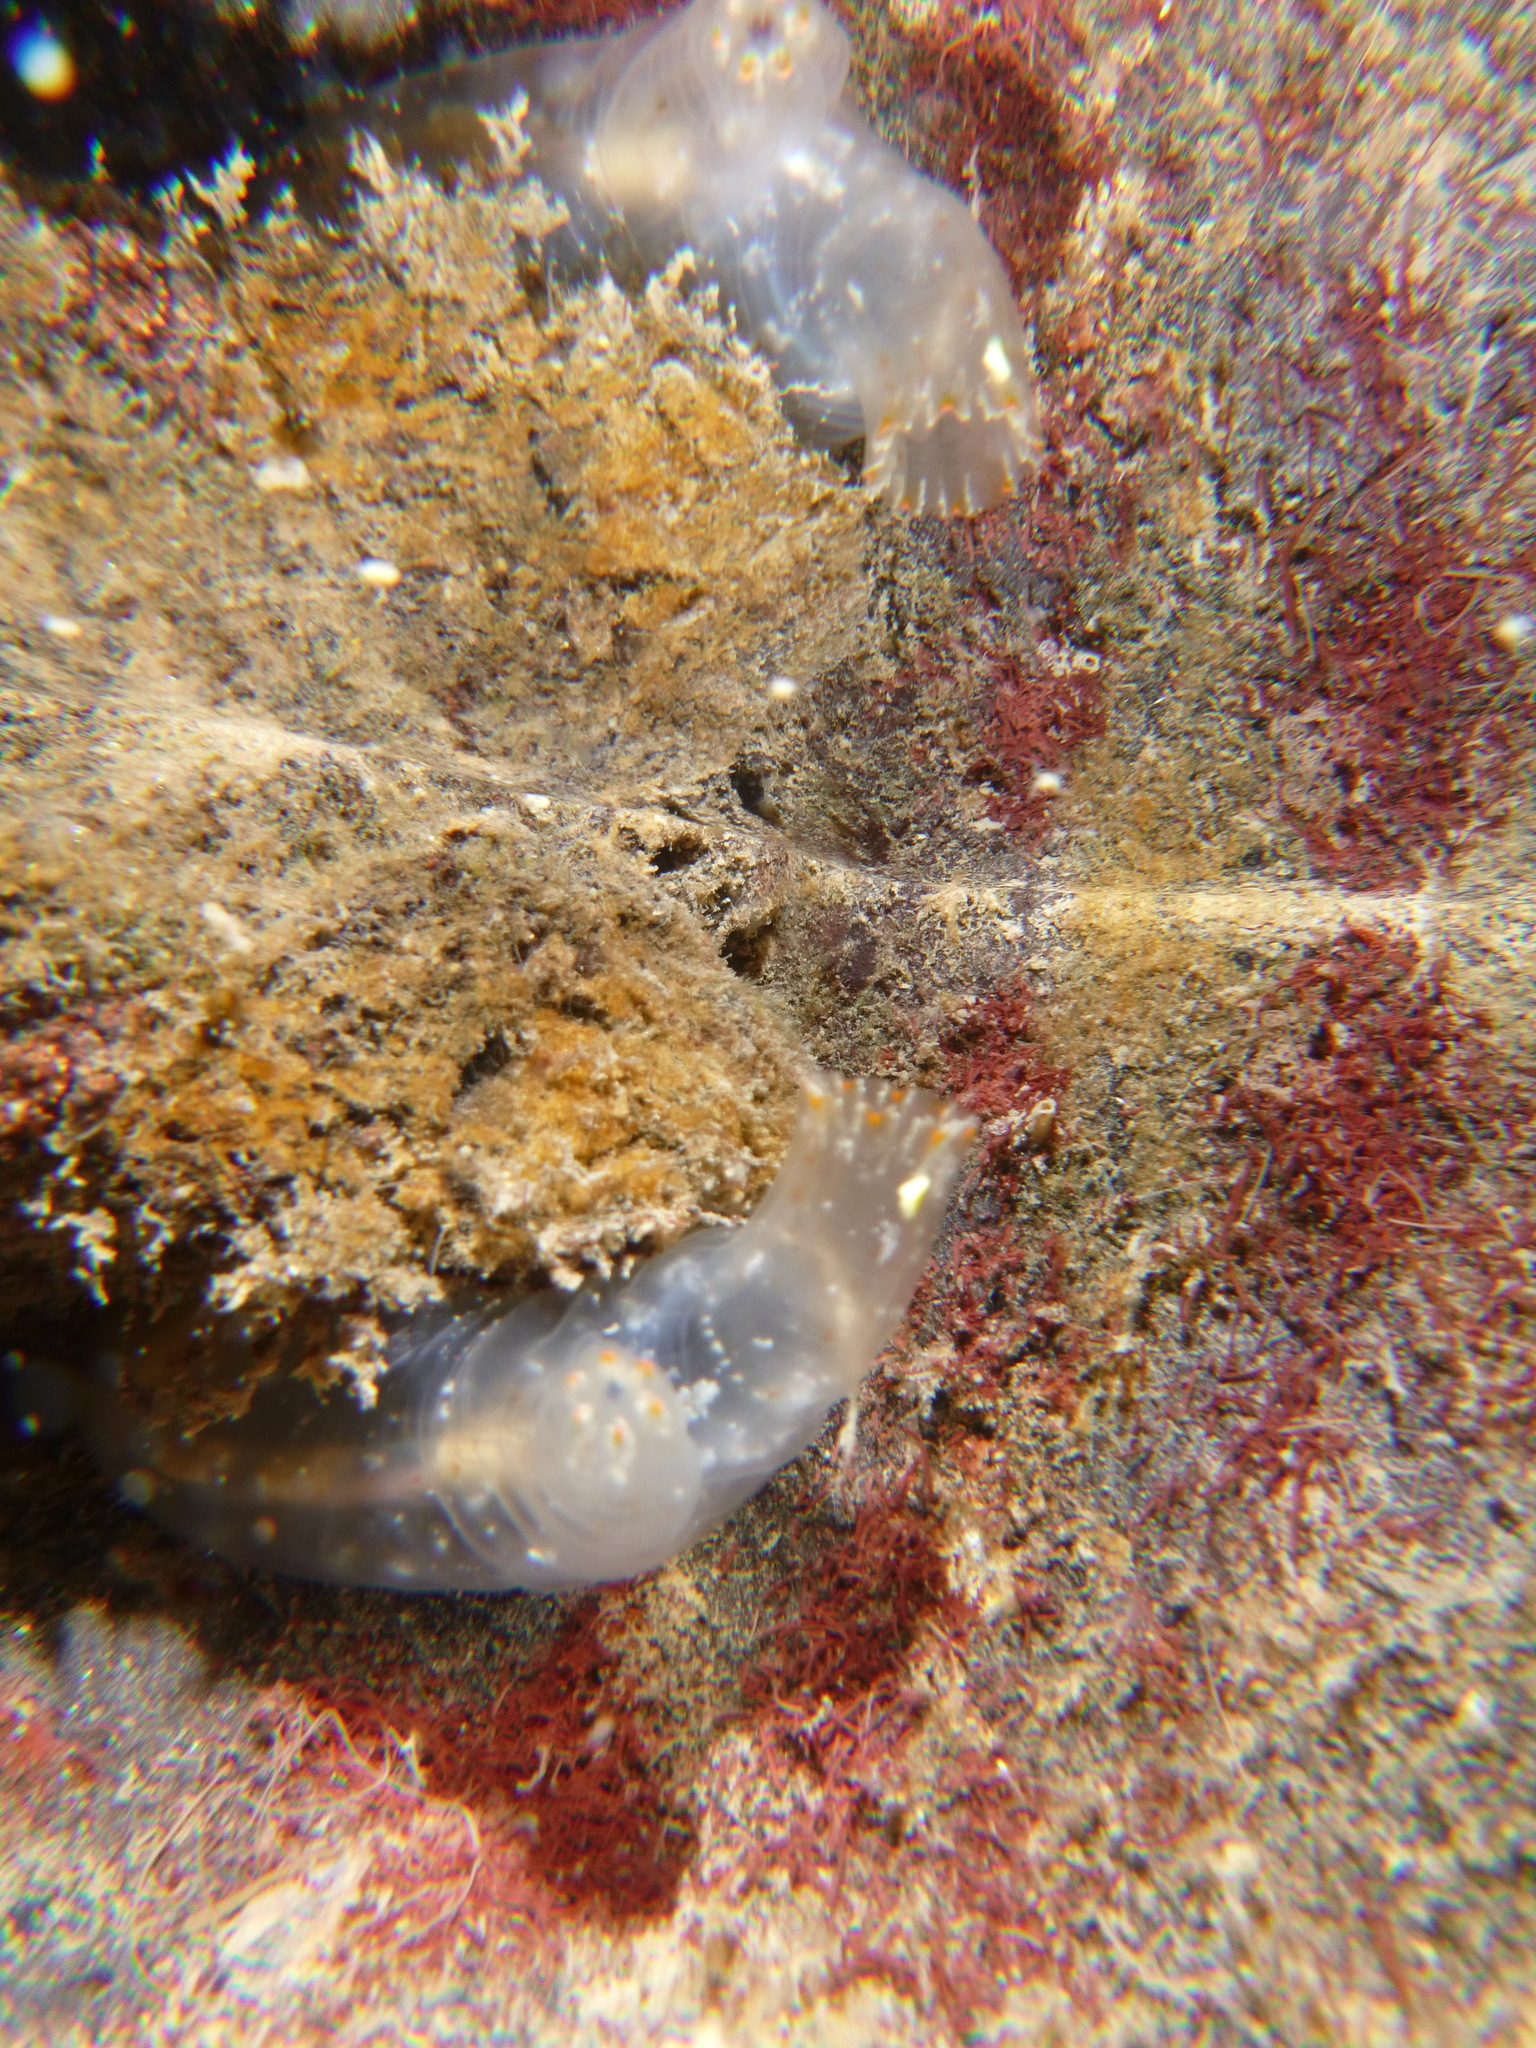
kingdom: Animalia
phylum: Chordata
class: Ascidiacea
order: Phlebobranchia
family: Cionidae
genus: Ciona
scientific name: Ciona savignyi
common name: Tunicate
